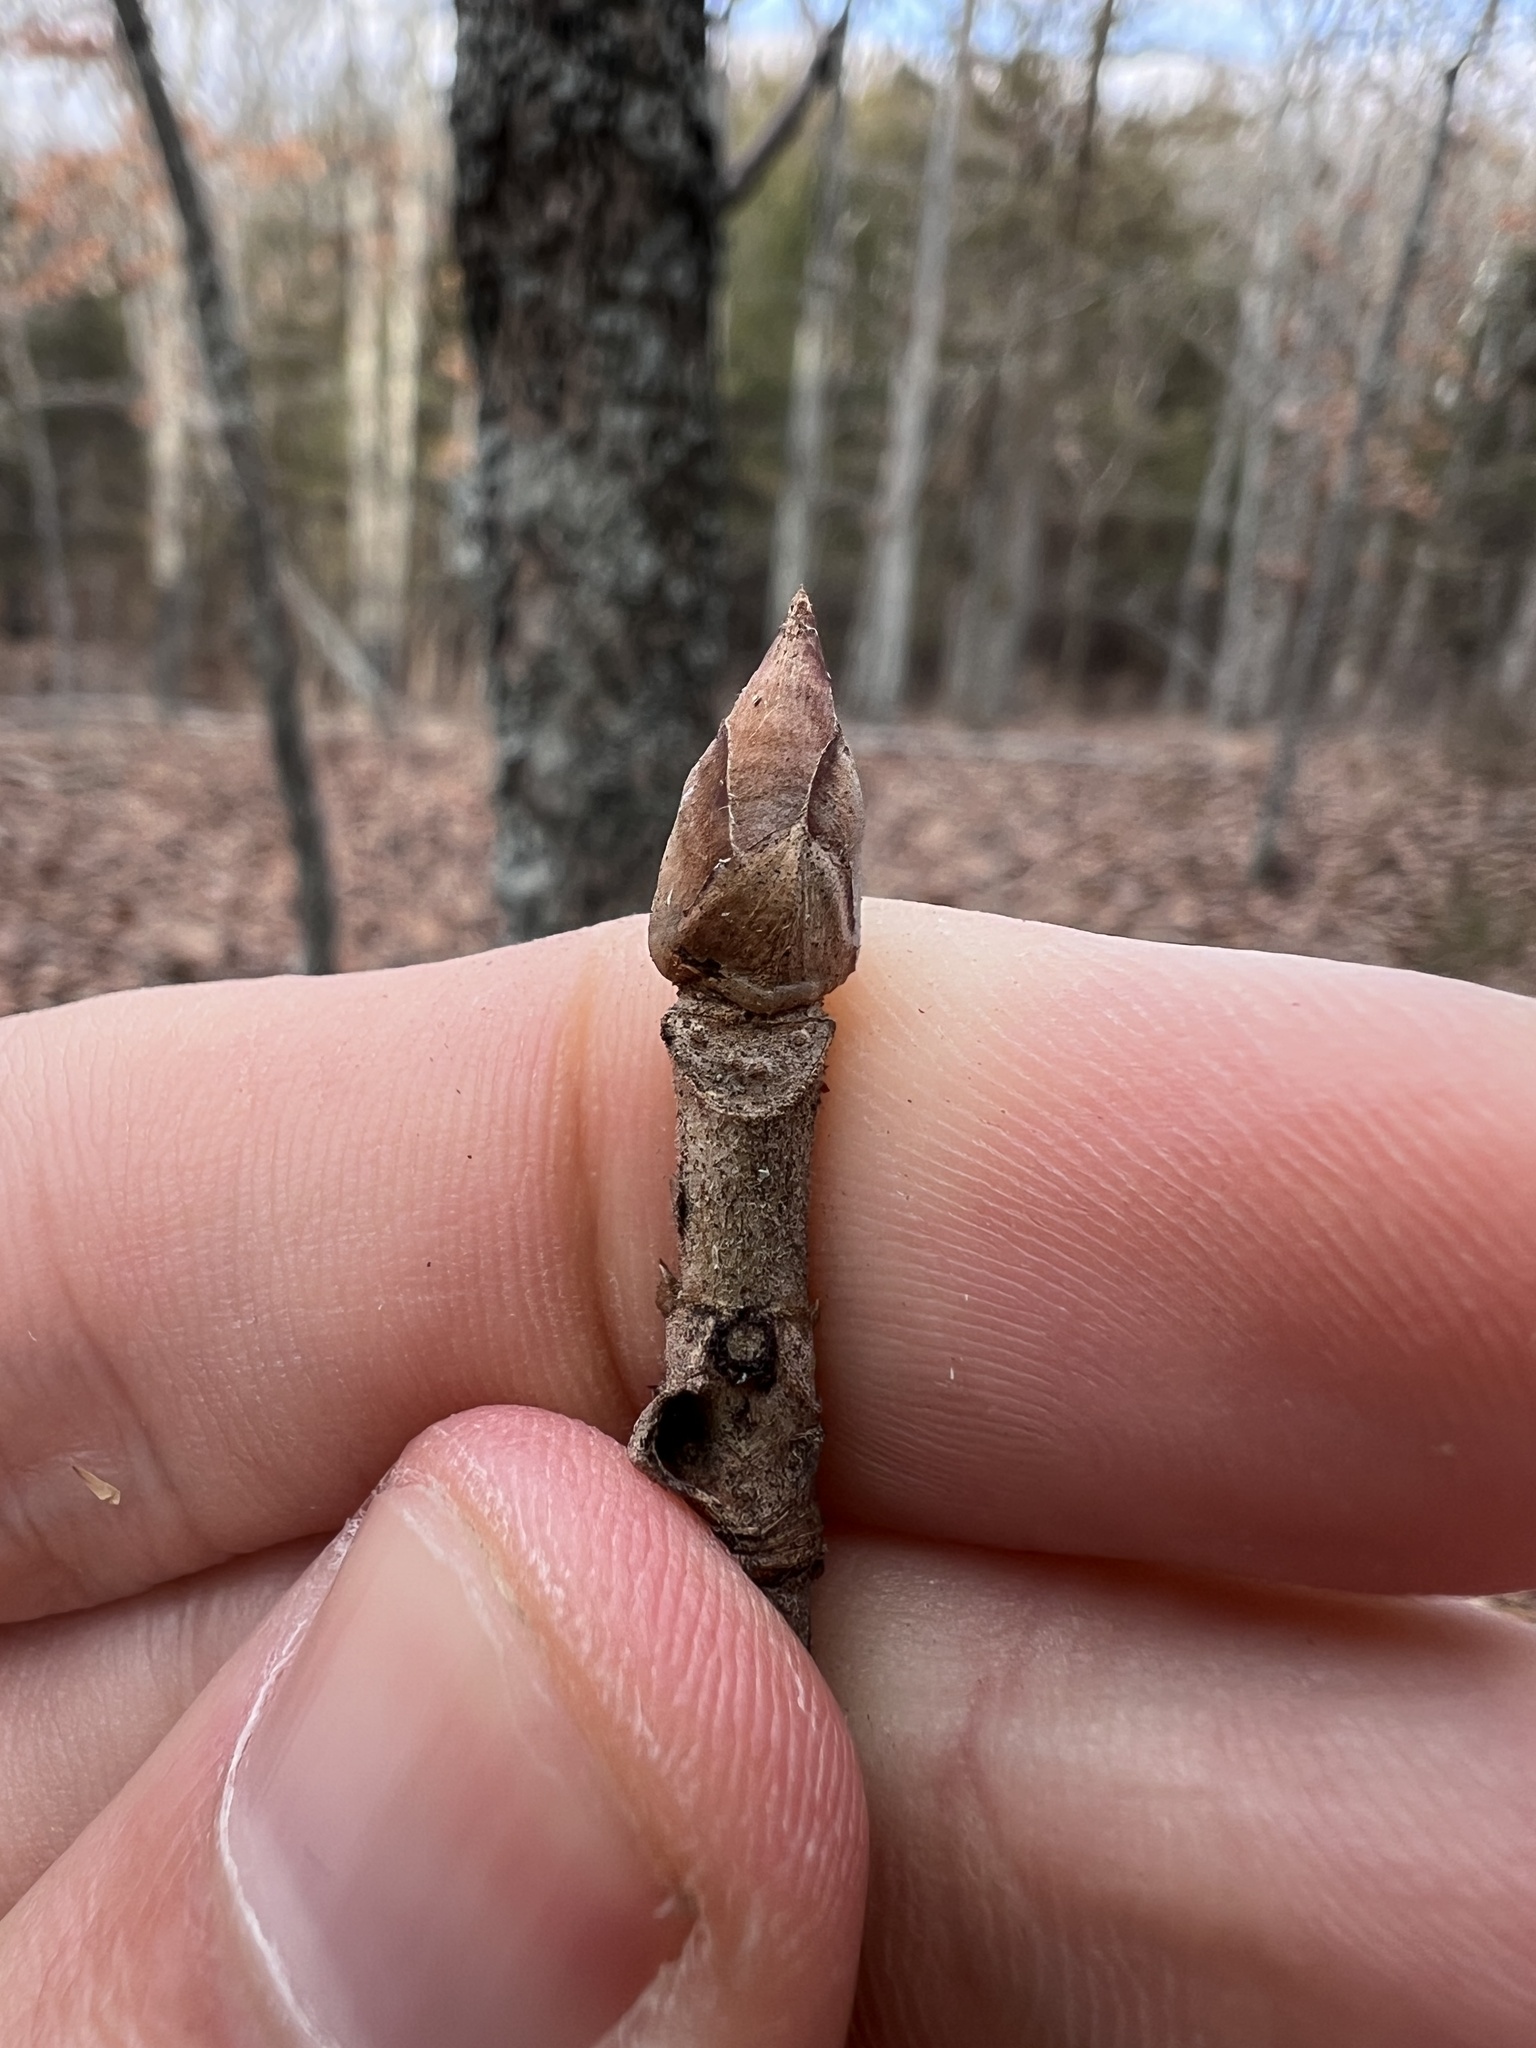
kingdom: Plantae
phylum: Tracheophyta
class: Magnoliopsida
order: Sapindales
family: Sapindaceae
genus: Aesculus
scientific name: Aesculus glabra
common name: Ohio buckeye
